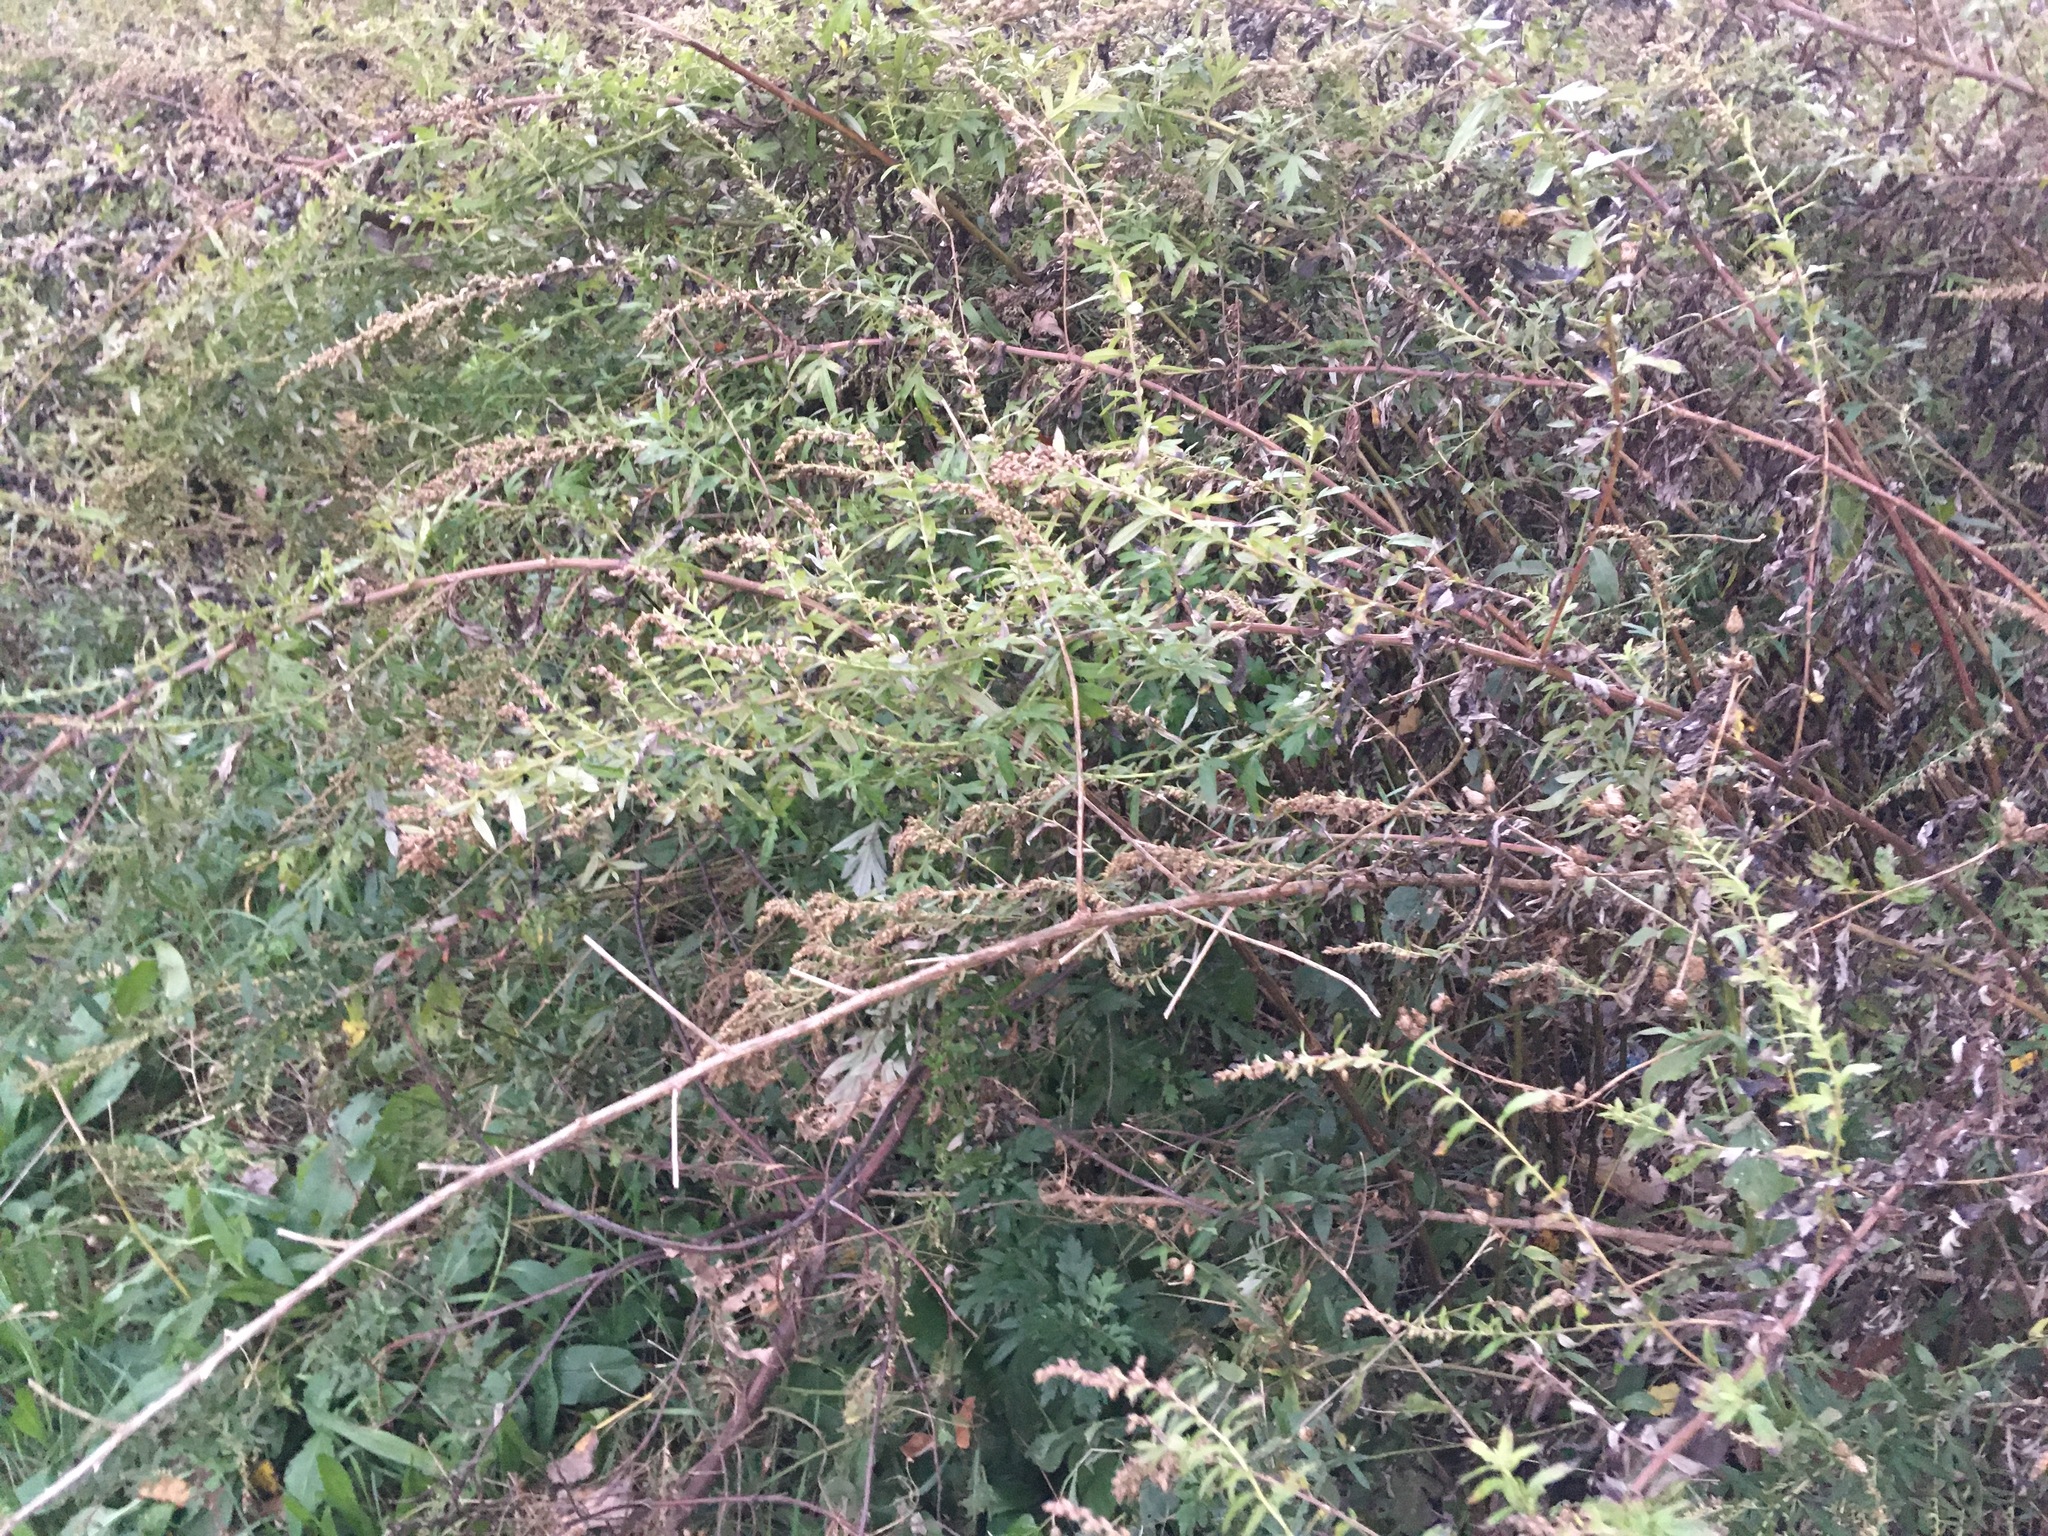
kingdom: Plantae
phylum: Tracheophyta
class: Magnoliopsida
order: Asterales
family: Asteraceae
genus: Artemisia
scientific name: Artemisia vulgaris
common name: Mugwort
